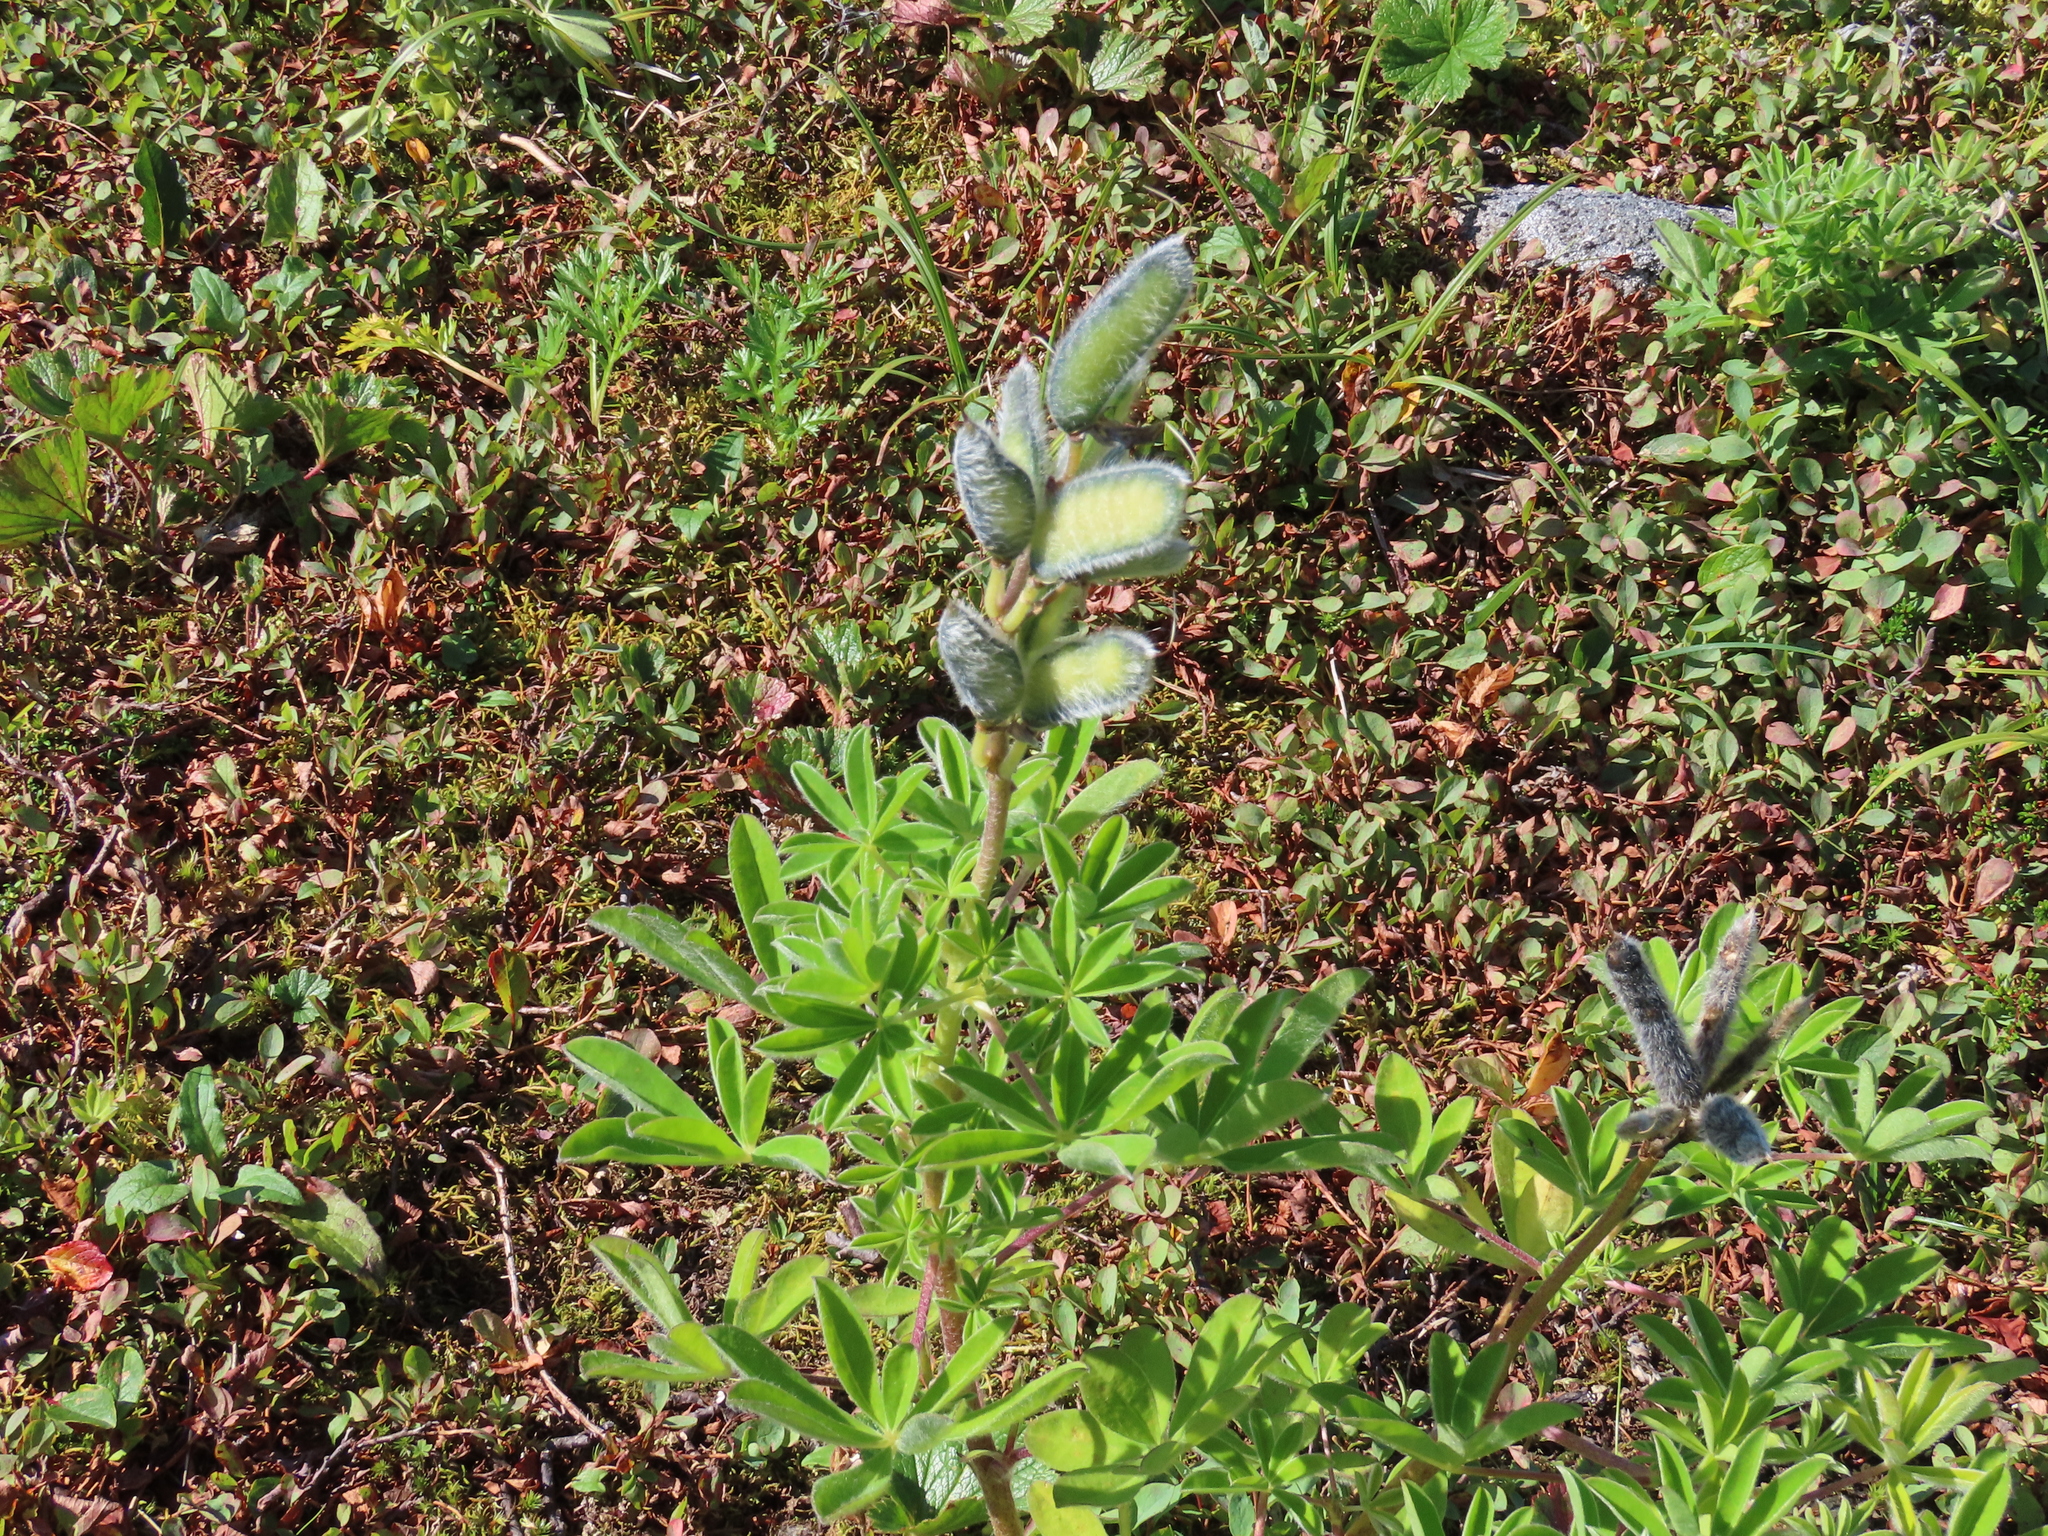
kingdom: Plantae
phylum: Tracheophyta
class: Magnoliopsida
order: Fabales
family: Fabaceae
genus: Lupinus
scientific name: Lupinus nootkatensis
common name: Nootka lupine
